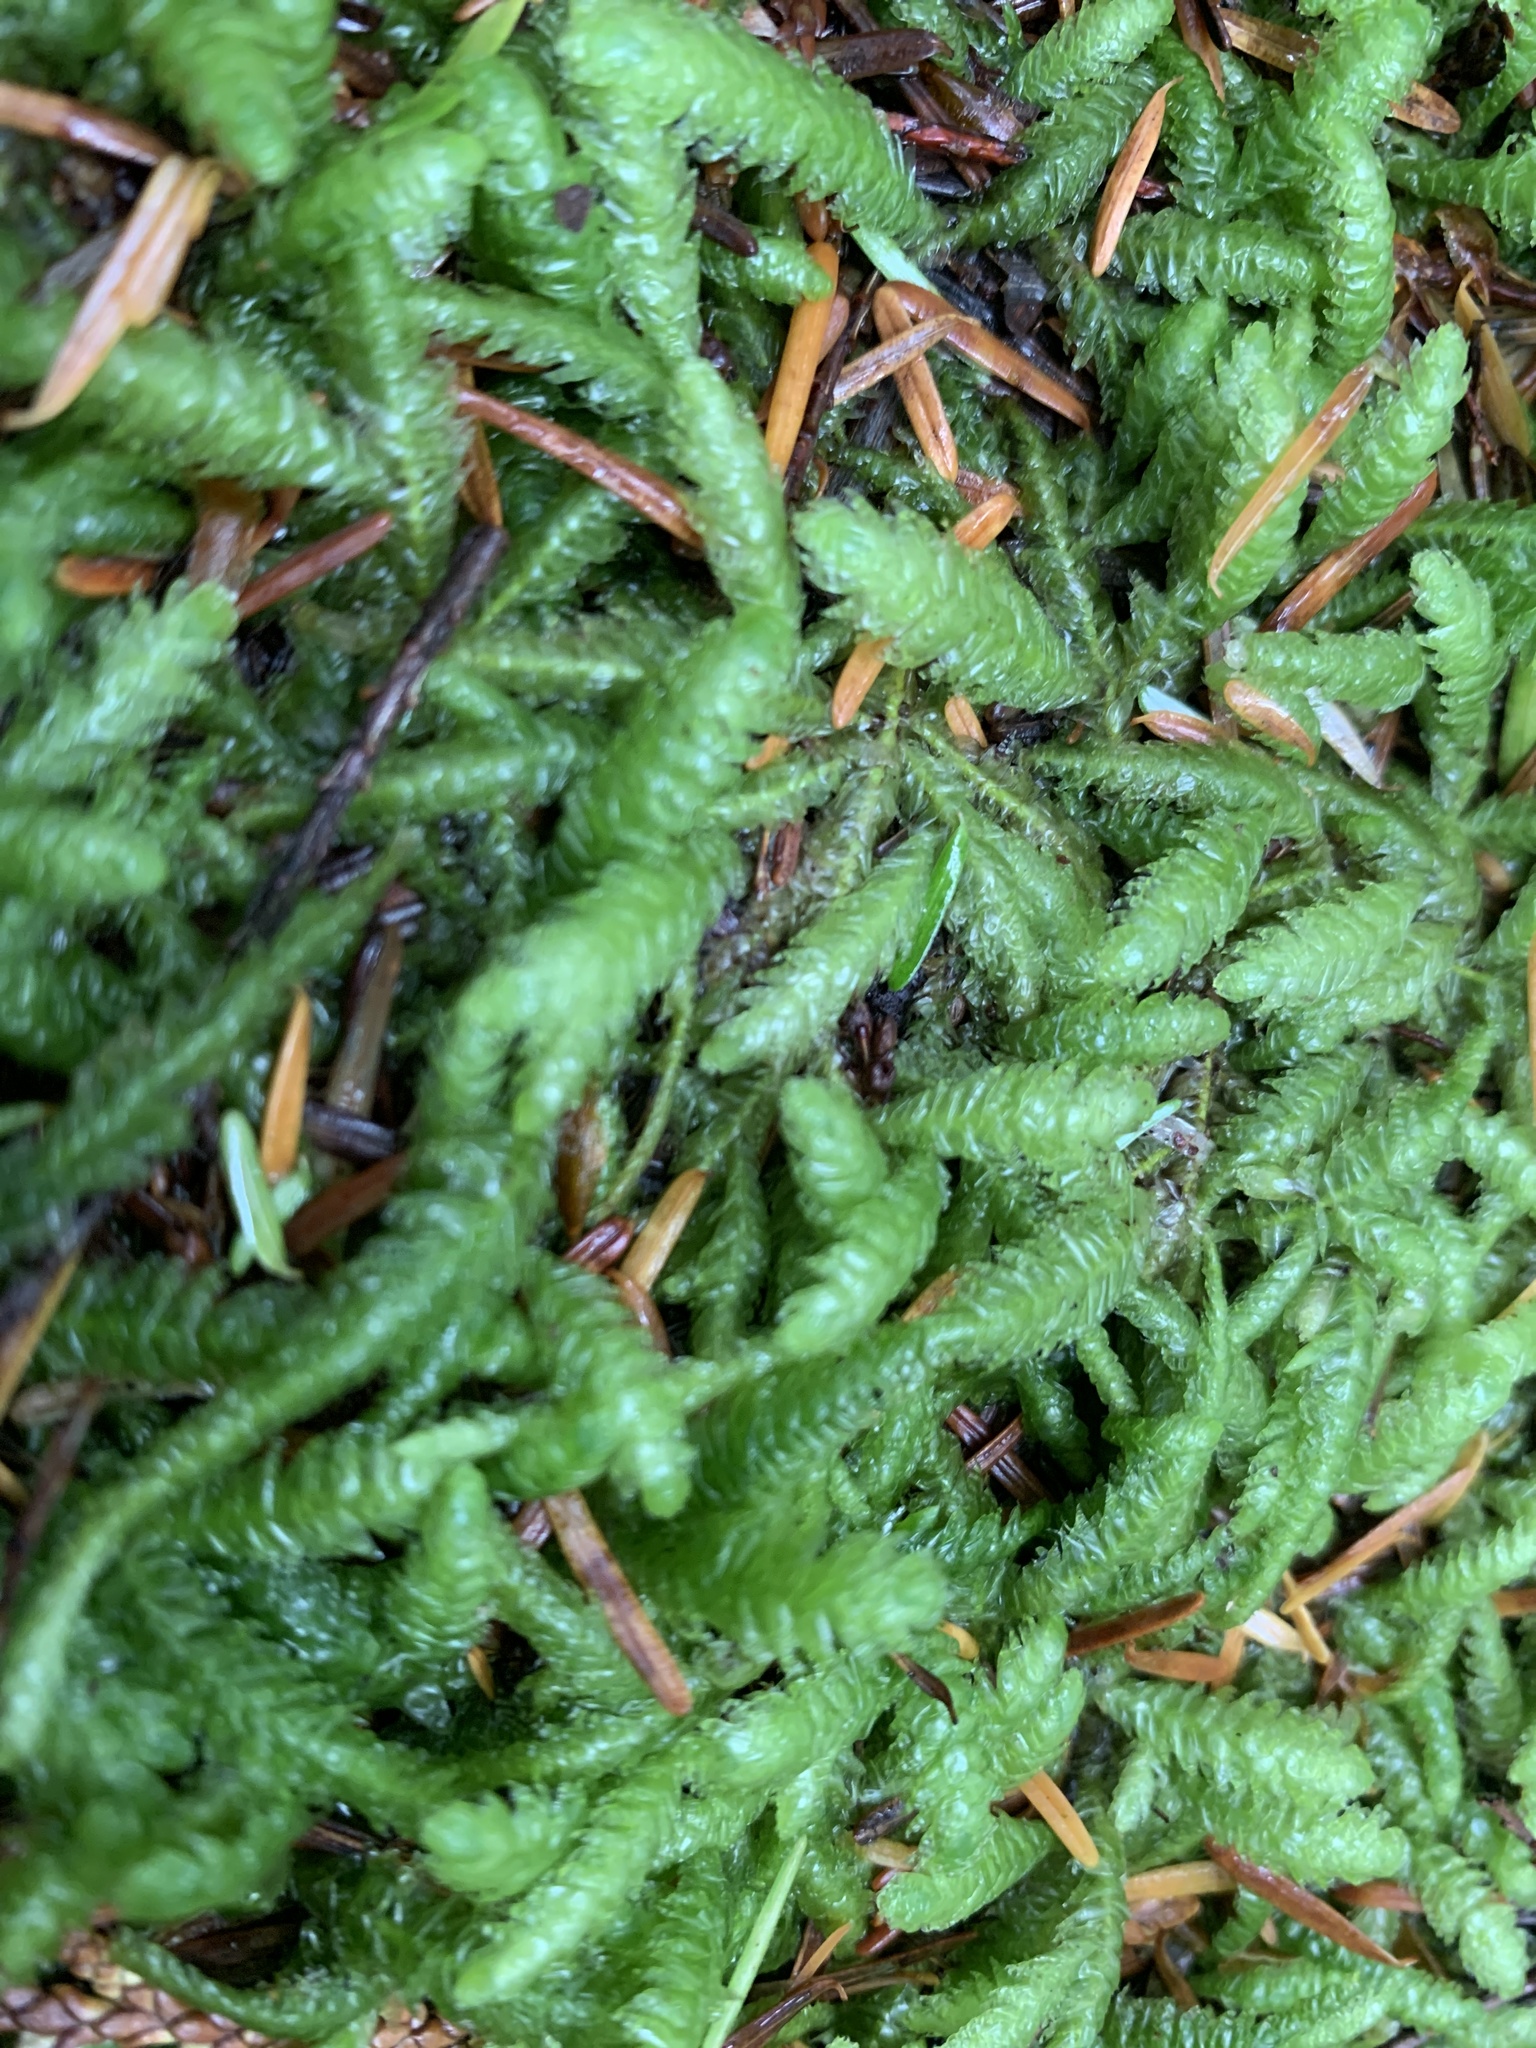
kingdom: Plantae
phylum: Bryophyta
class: Bryopsida
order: Hypnales
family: Plagiotheciaceae
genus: Plagiothecium
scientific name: Plagiothecium undulatum
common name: Waved silk-moss
